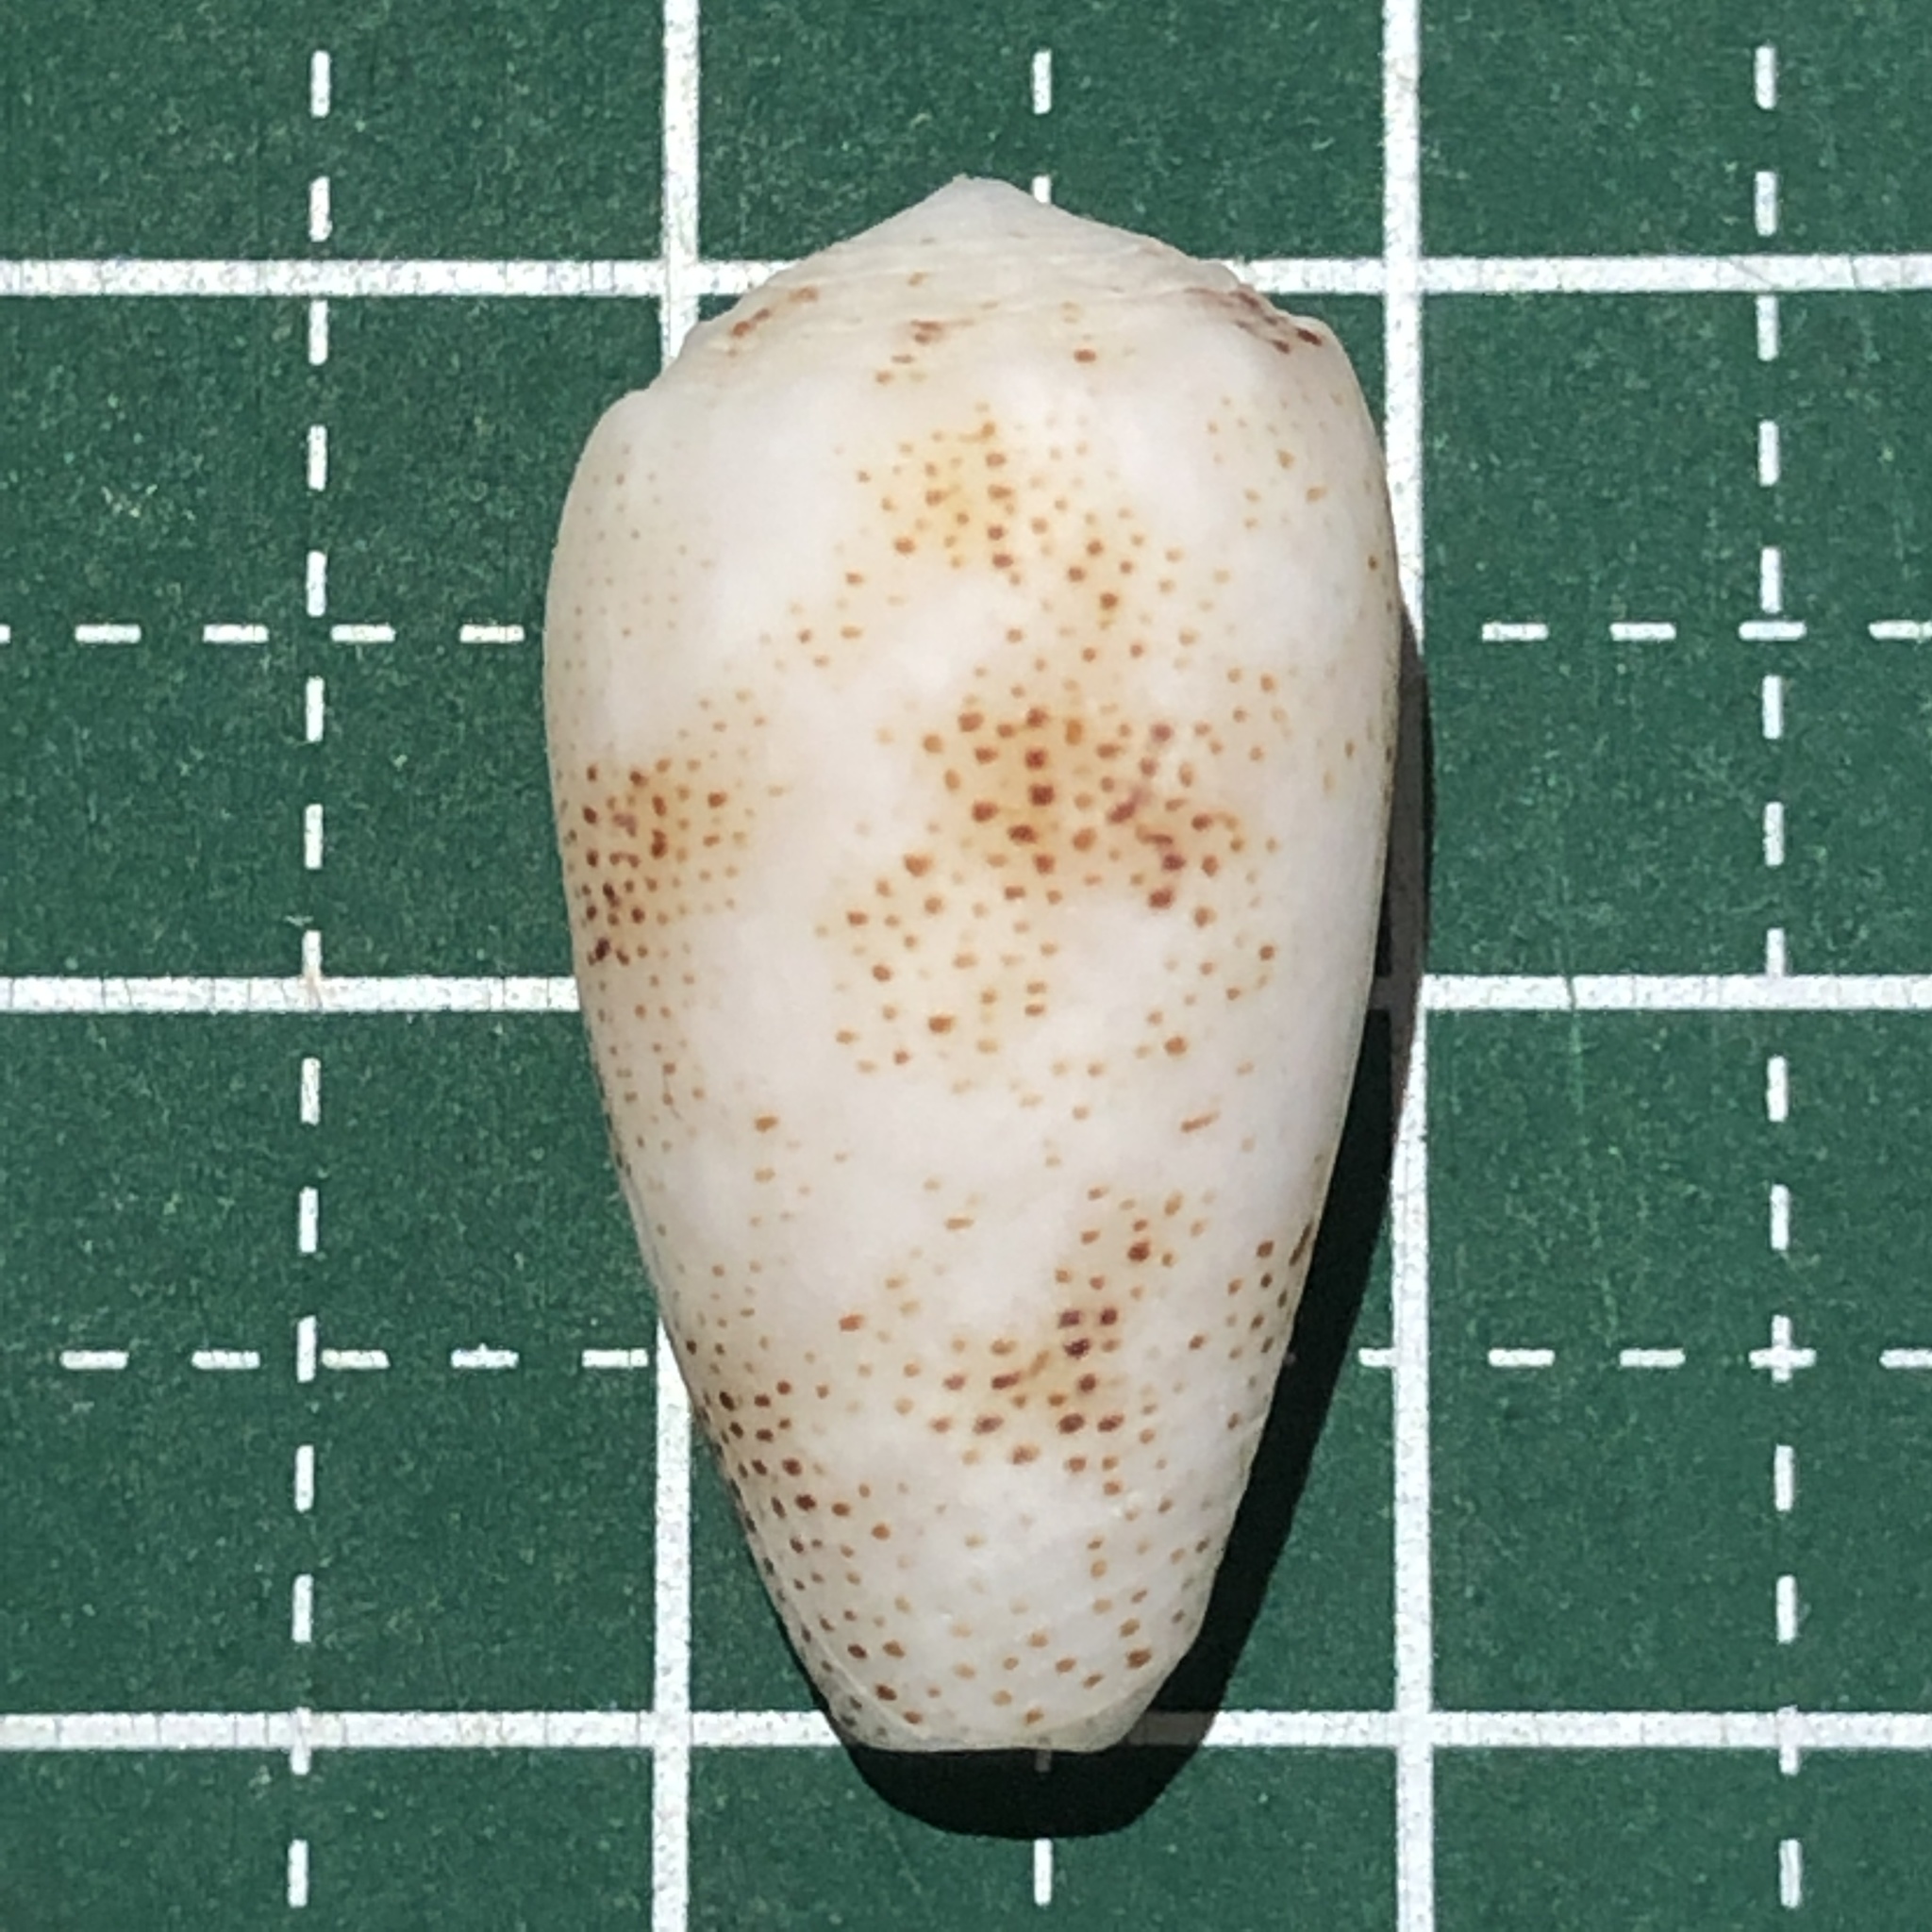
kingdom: Animalia
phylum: Mollusca
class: Gastropoda
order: Neogastropoda
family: Conidae
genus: Conus
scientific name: Conus arenatus
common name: Sand-dusted cone
